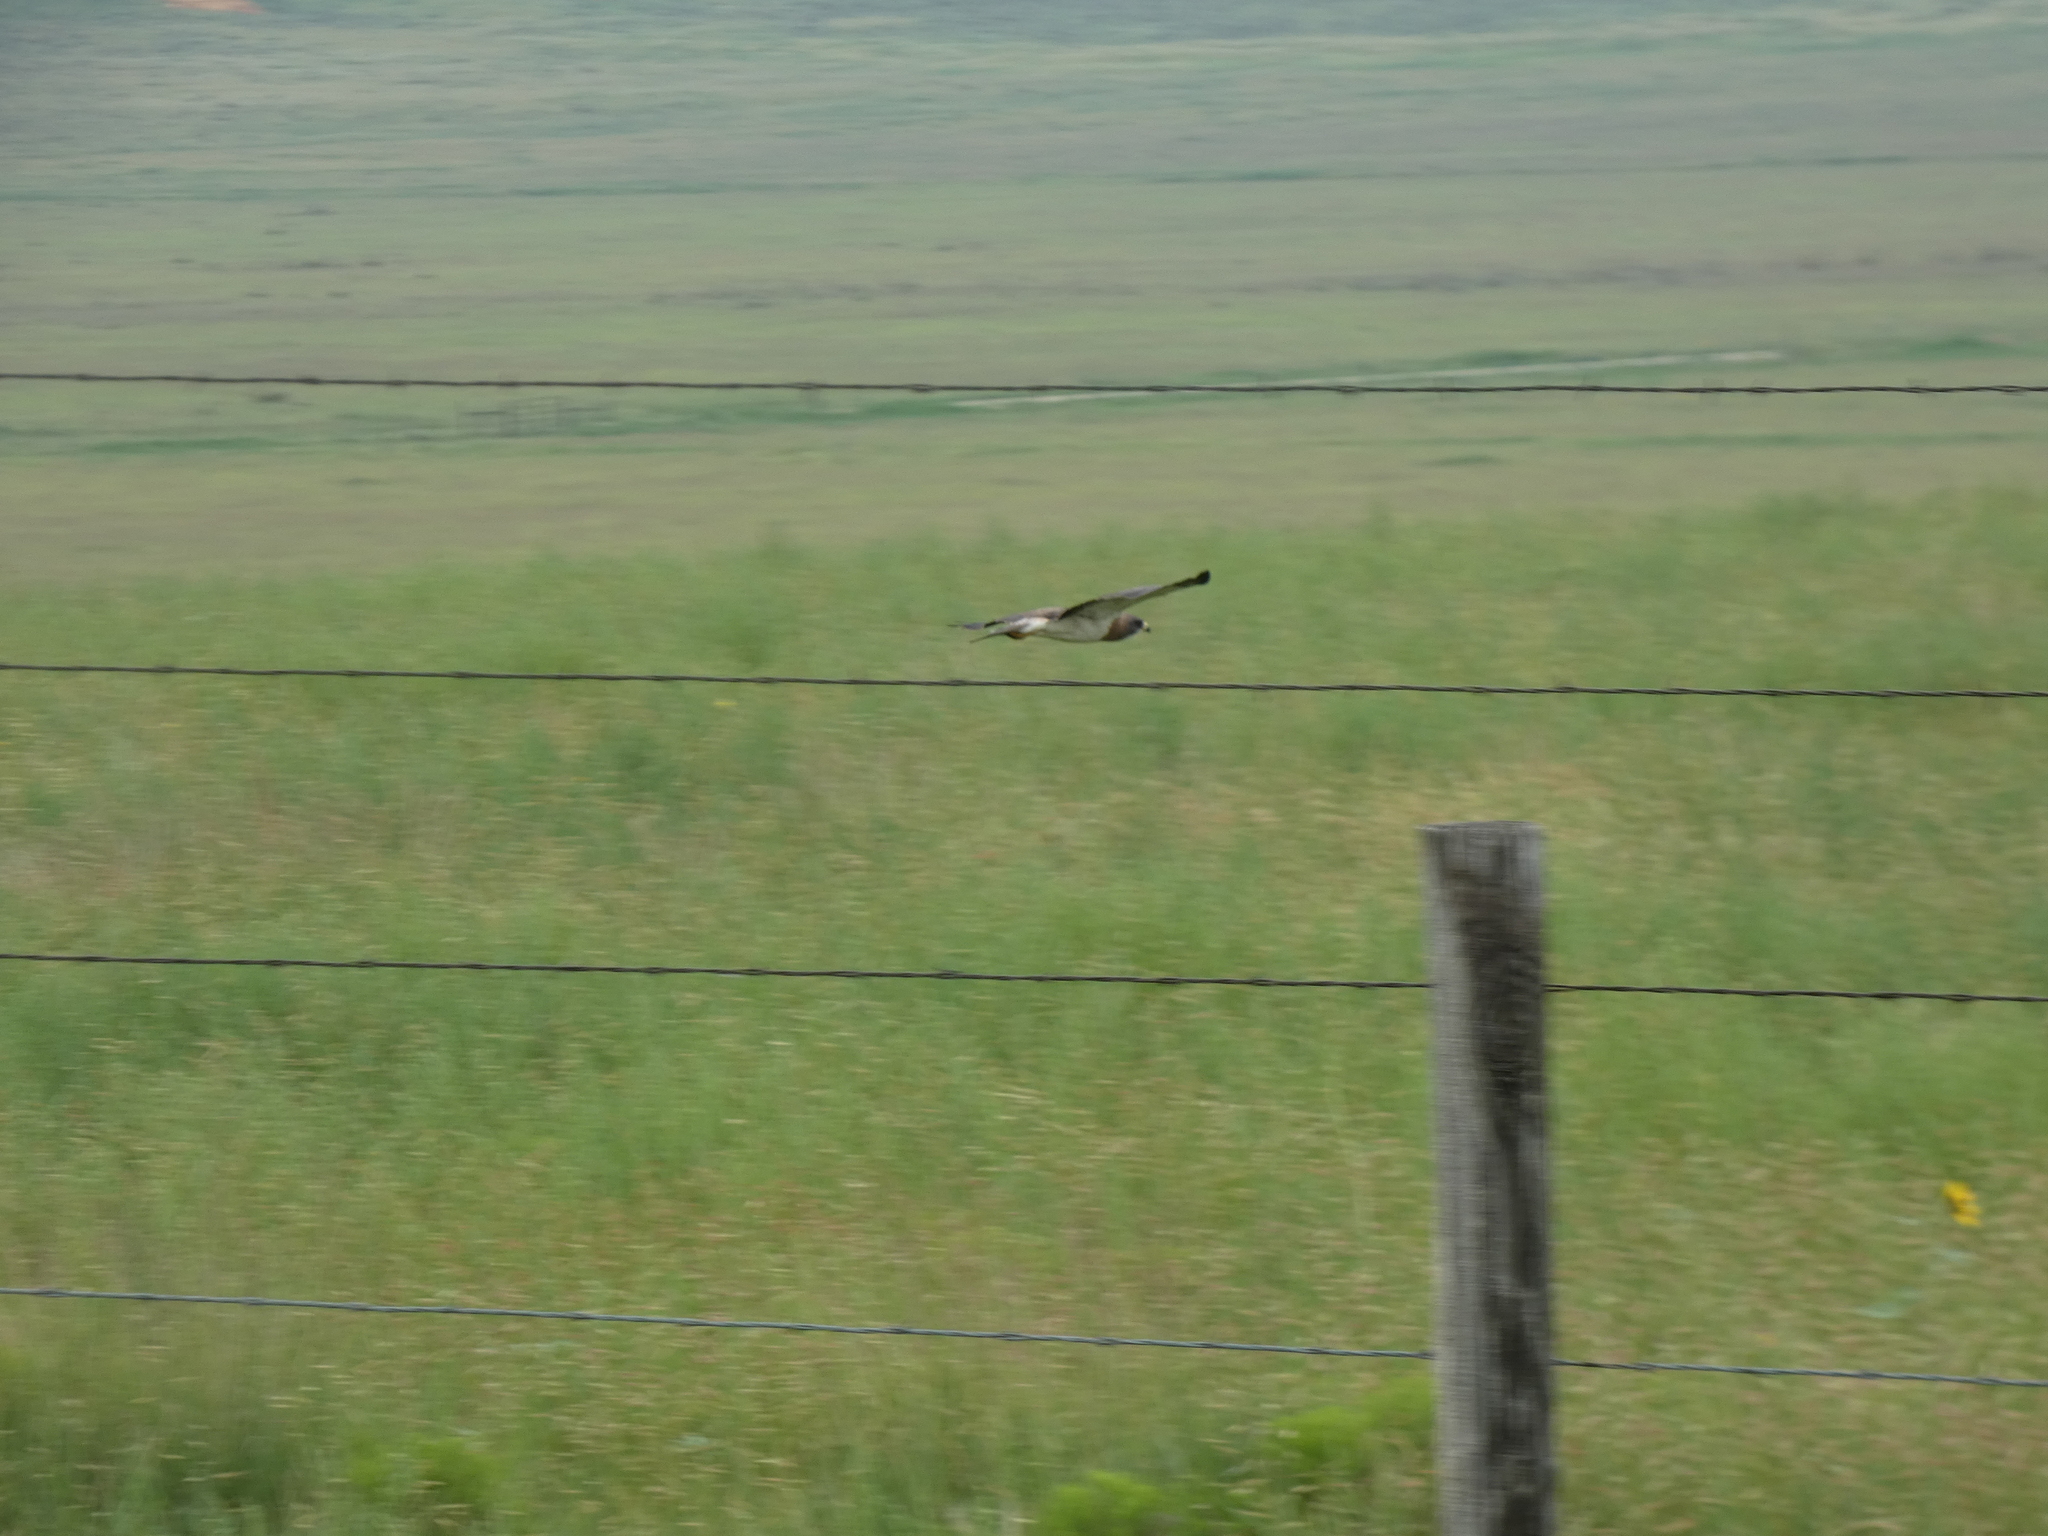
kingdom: Animalia
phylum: Chordata
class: Aves
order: Accipitriformes
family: Accipitridae
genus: Buteo
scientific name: Buteo swainsoni
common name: Swainson's hawk
